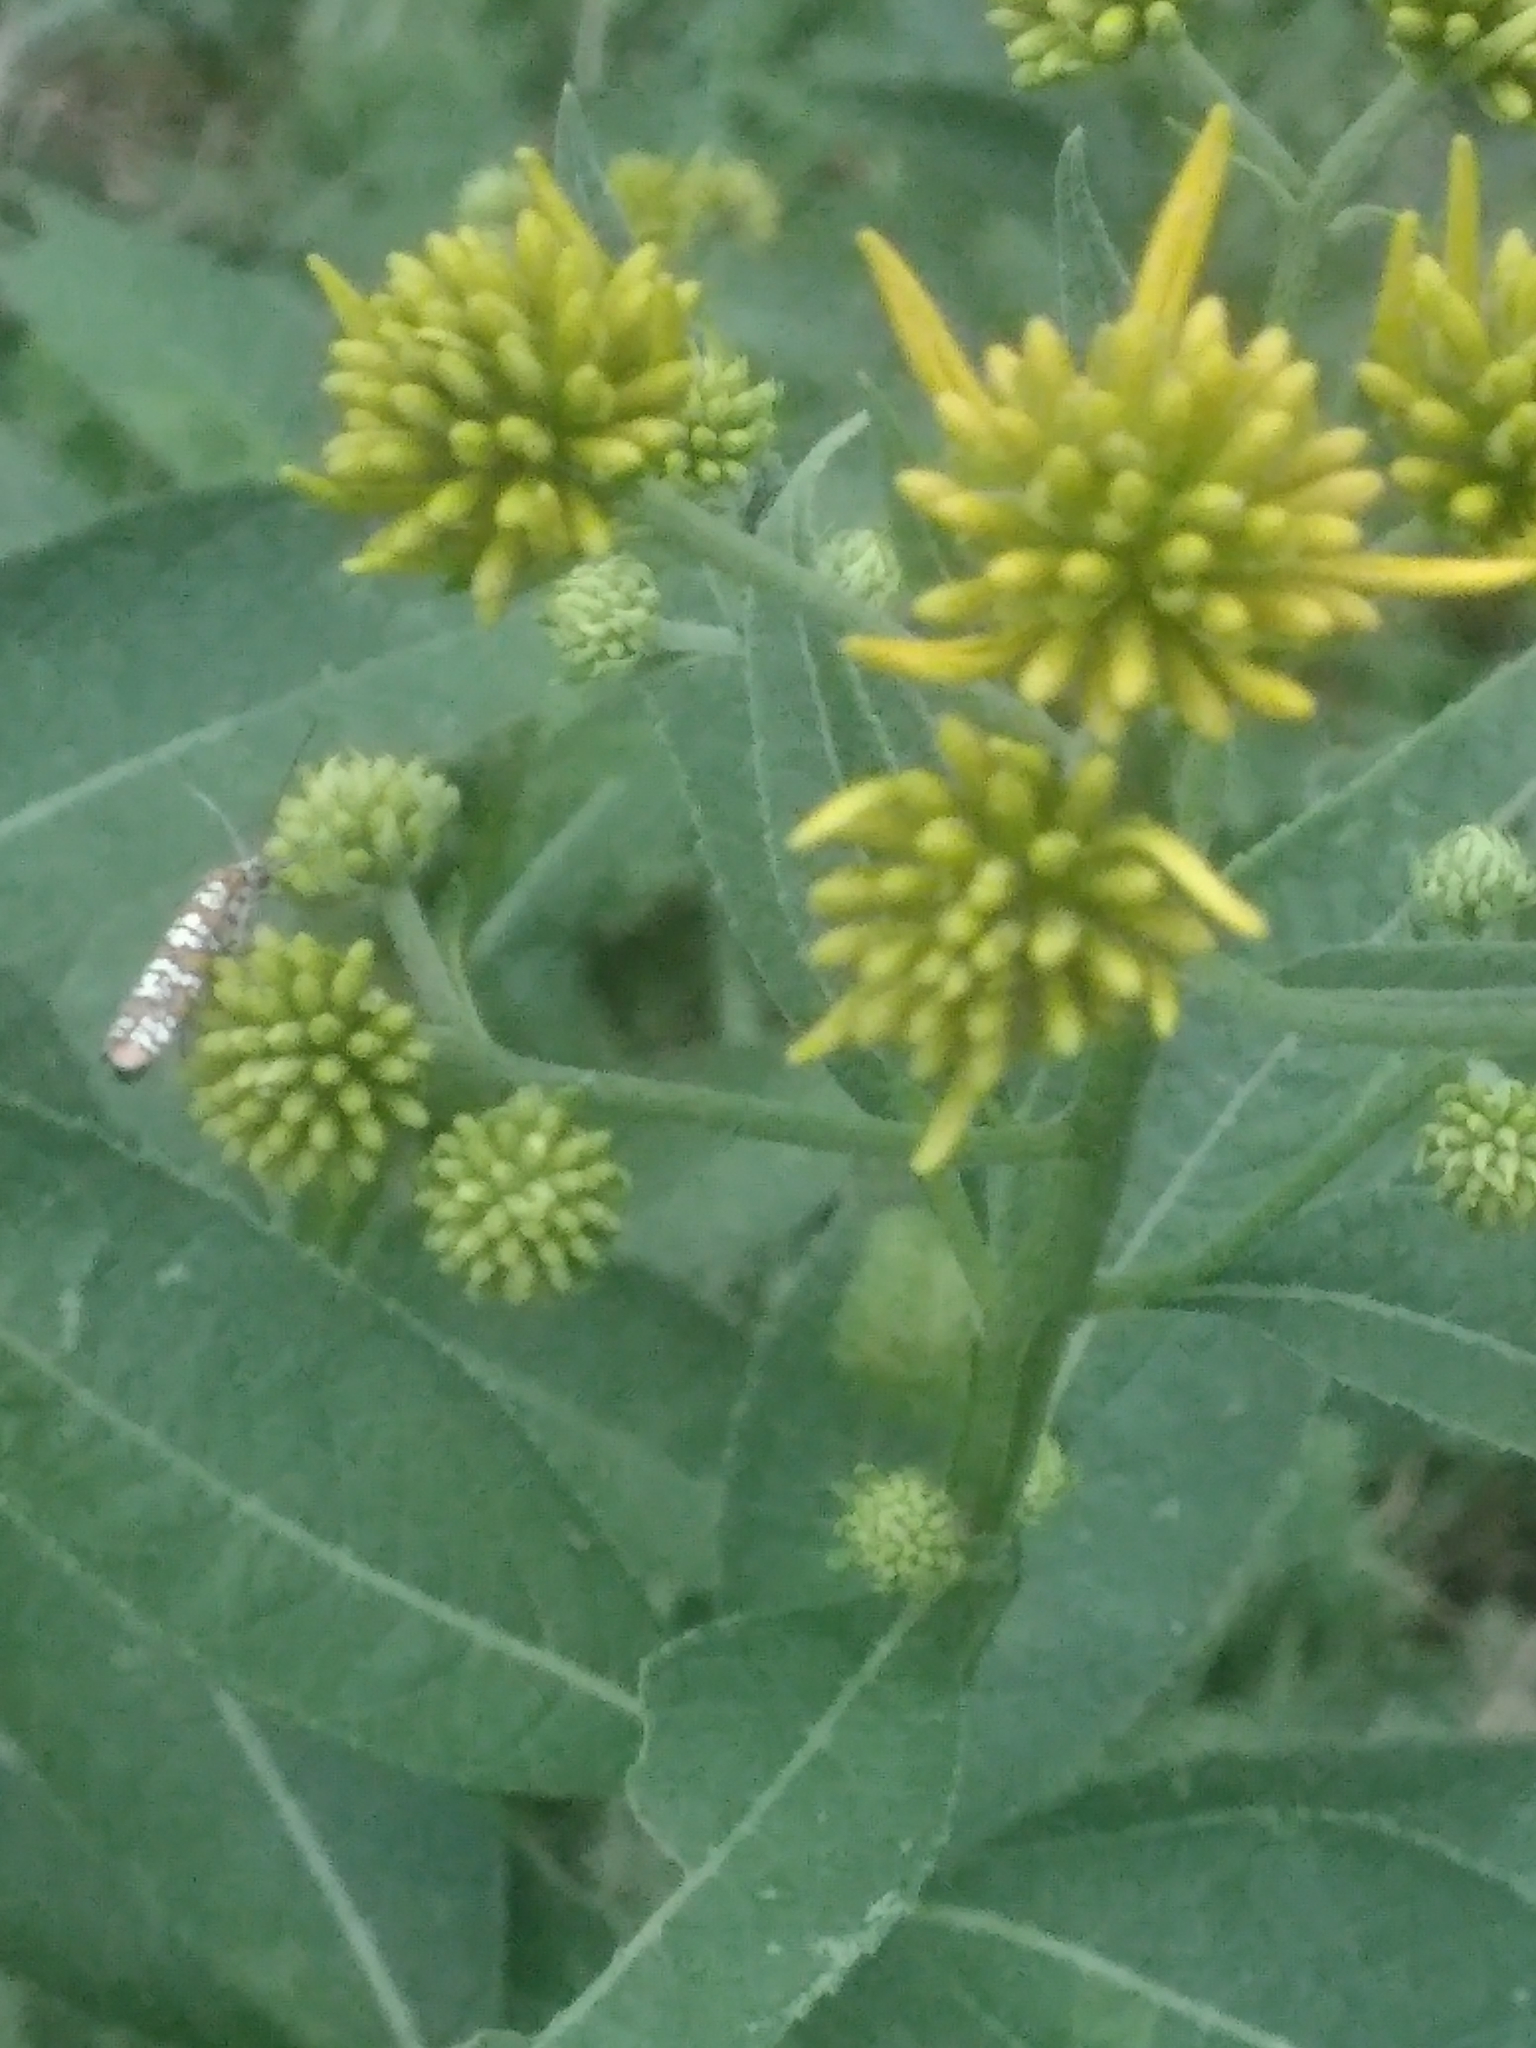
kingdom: Plantae
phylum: Tracheophyta
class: Magnoliopsida
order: Asterales
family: Asteraceae
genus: Verbesina
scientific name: Verbesina alternifolia
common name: Wingstem
